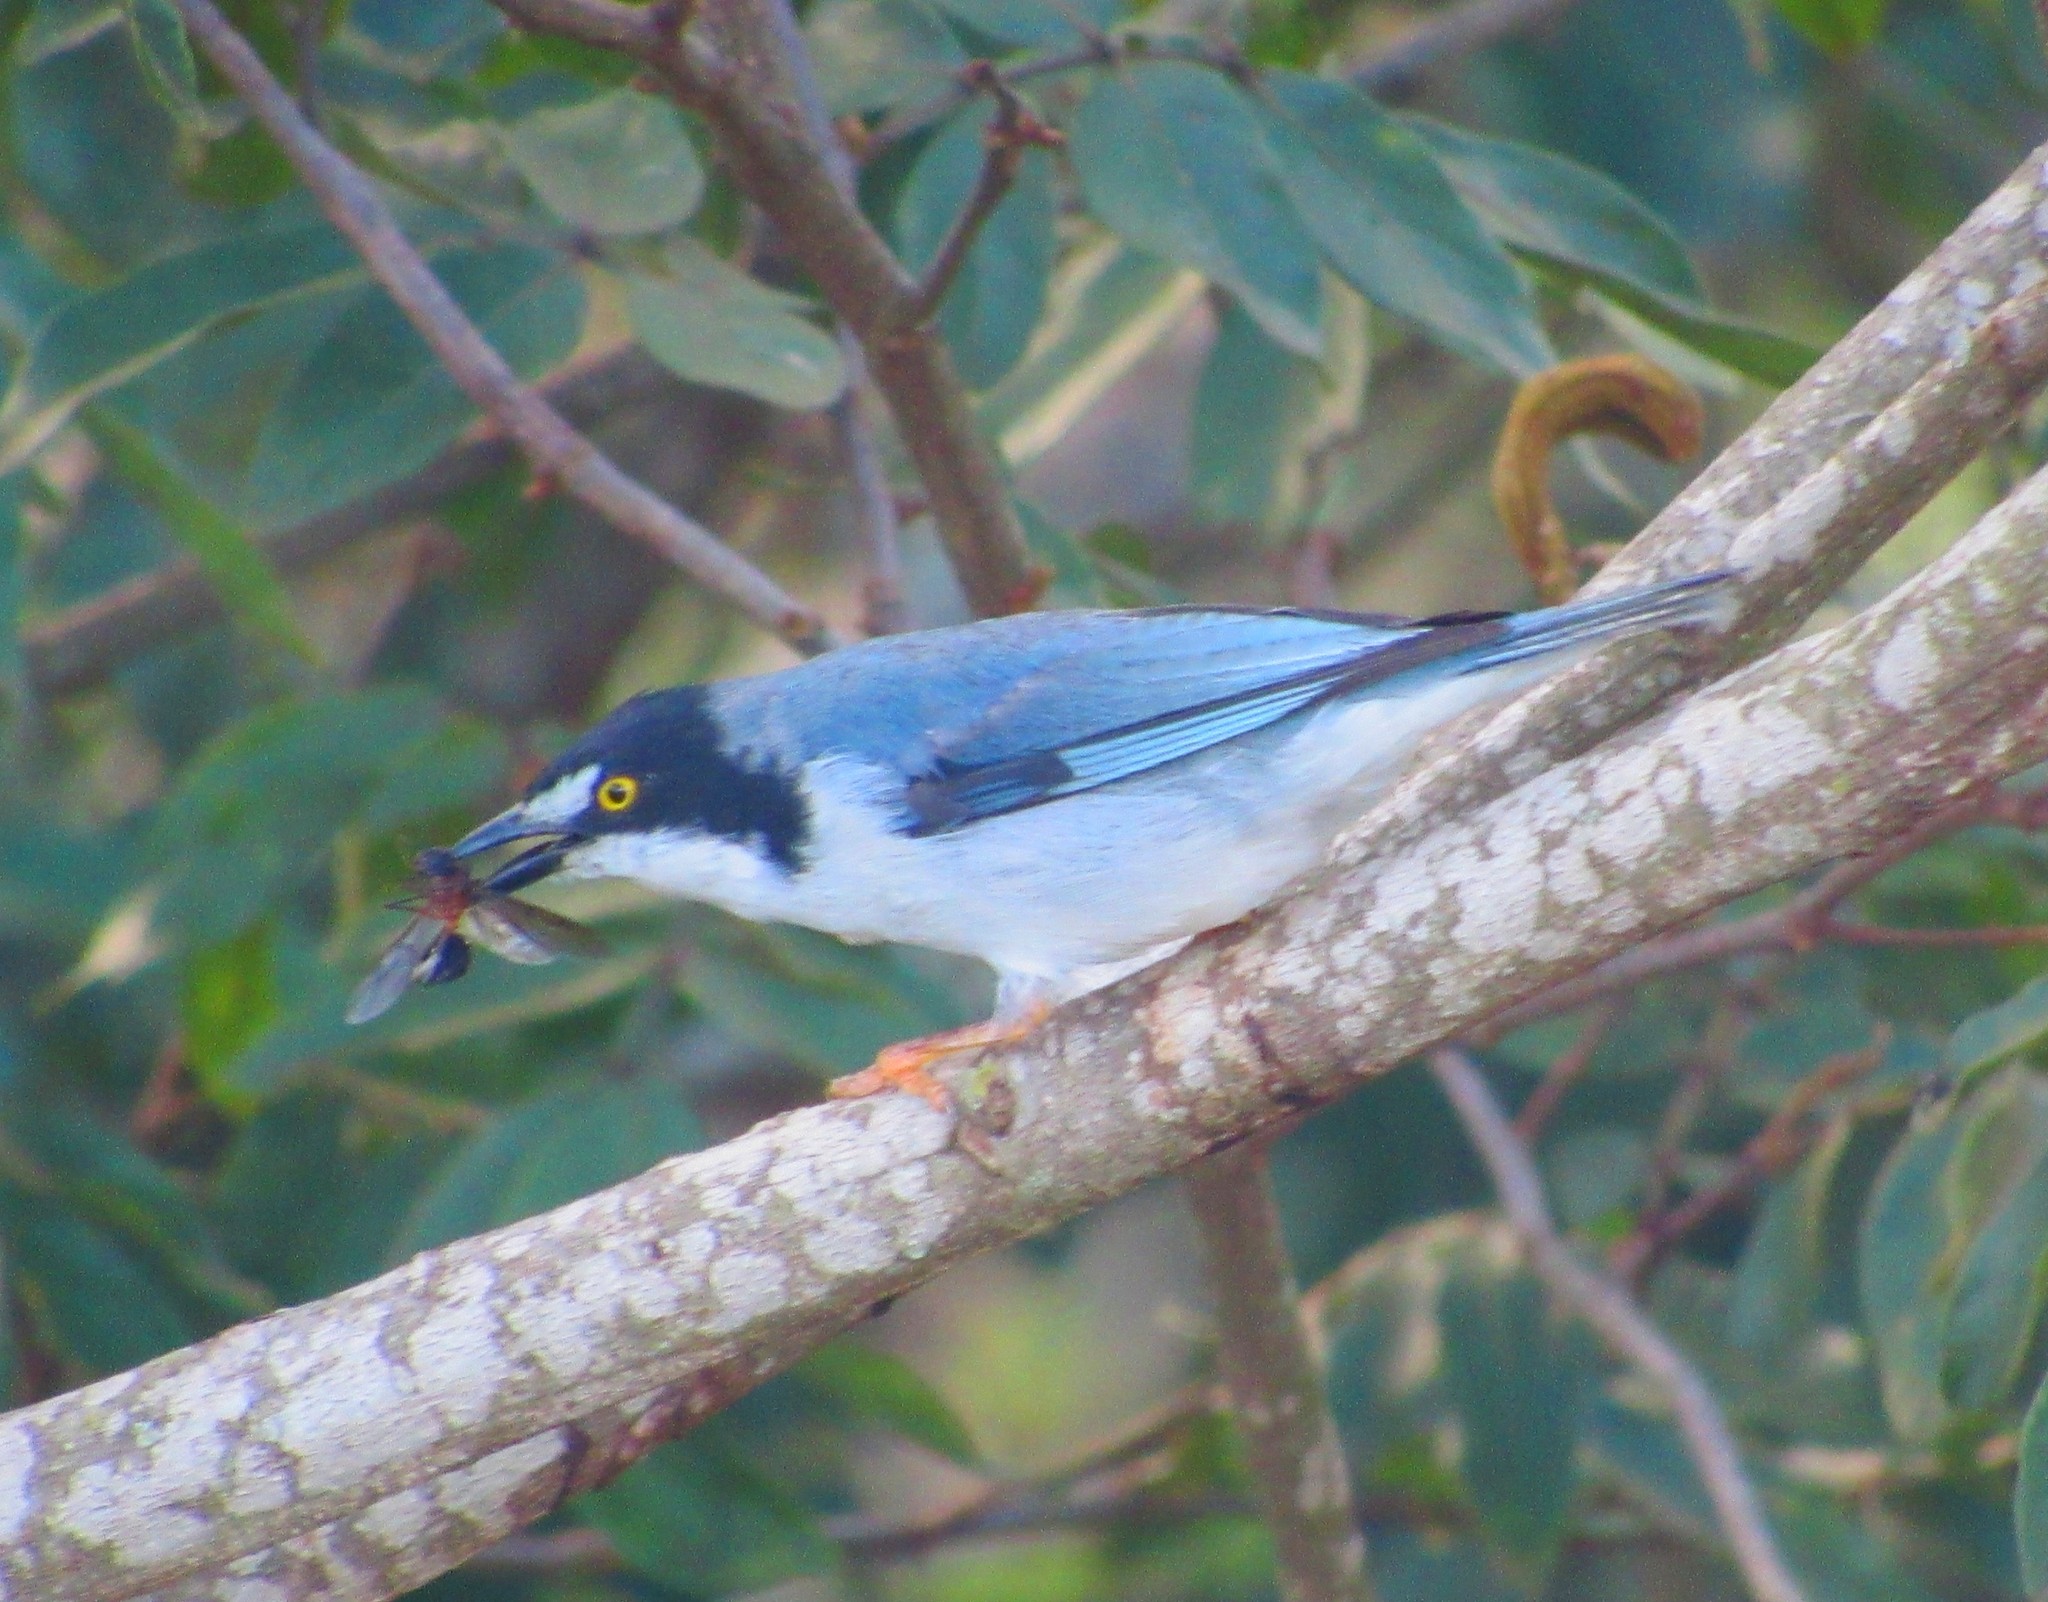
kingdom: Animalia
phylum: Chordata
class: Aves
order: Passeriformes
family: Thraupidae
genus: Nemosia
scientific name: Nemosia pileata
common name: Hooded tanager
